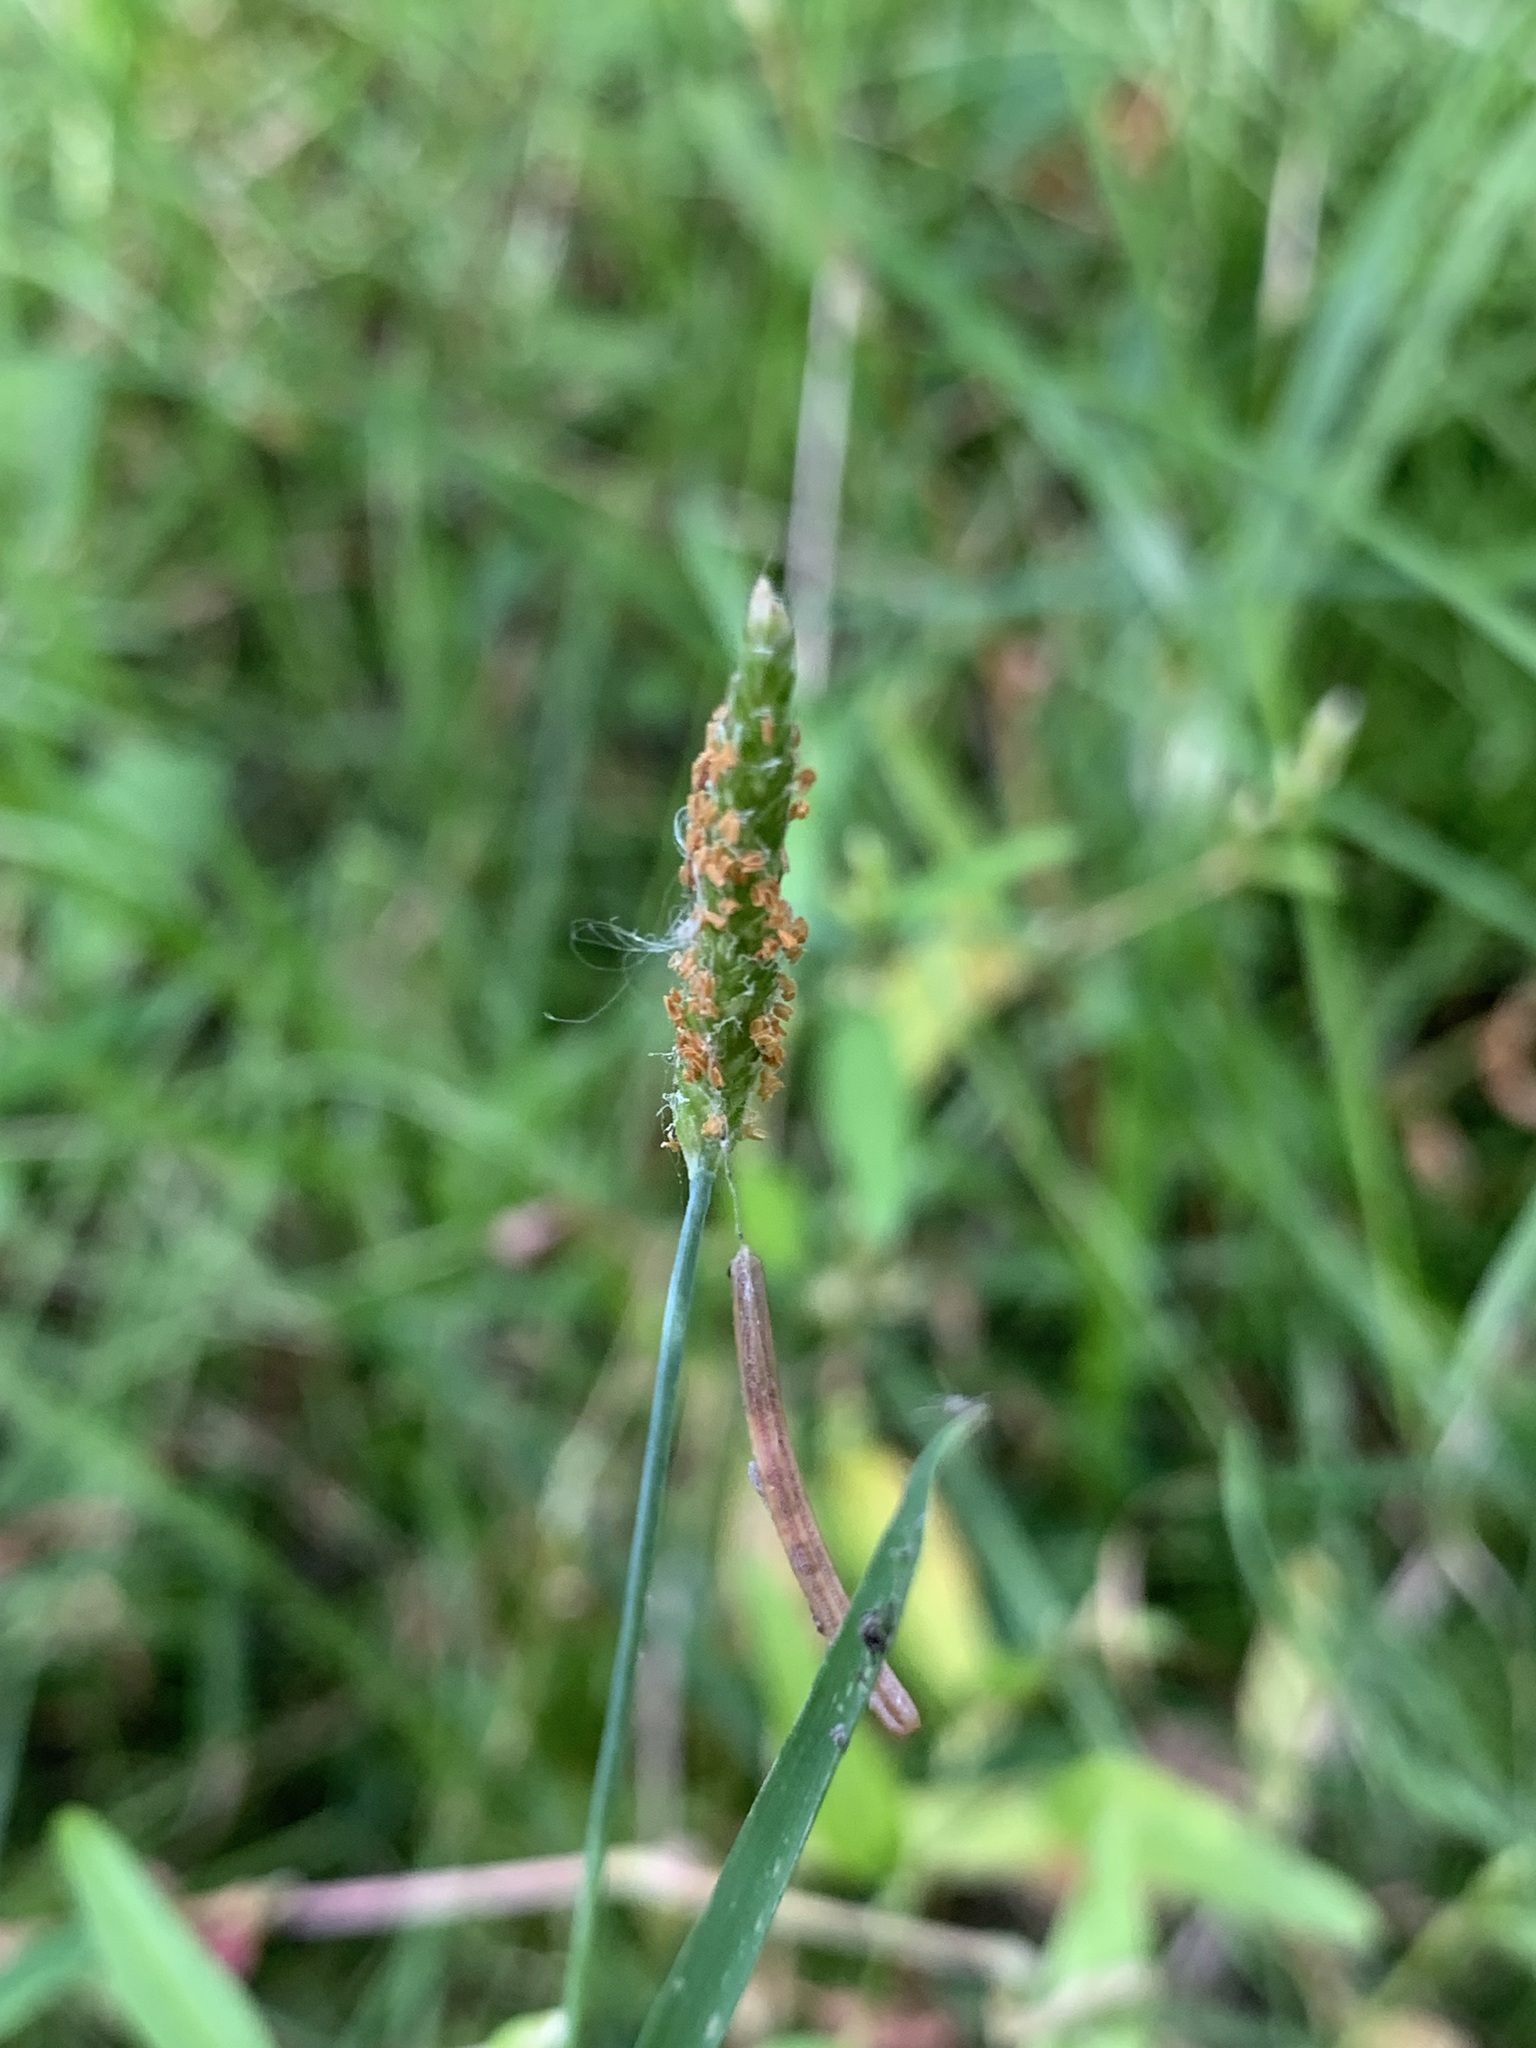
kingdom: Plantae
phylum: Tracheophyta
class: Liliopsida
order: Poales
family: Poaceae
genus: Alopecurus
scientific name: Alopecurus aequalis
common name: Orange foxtail
